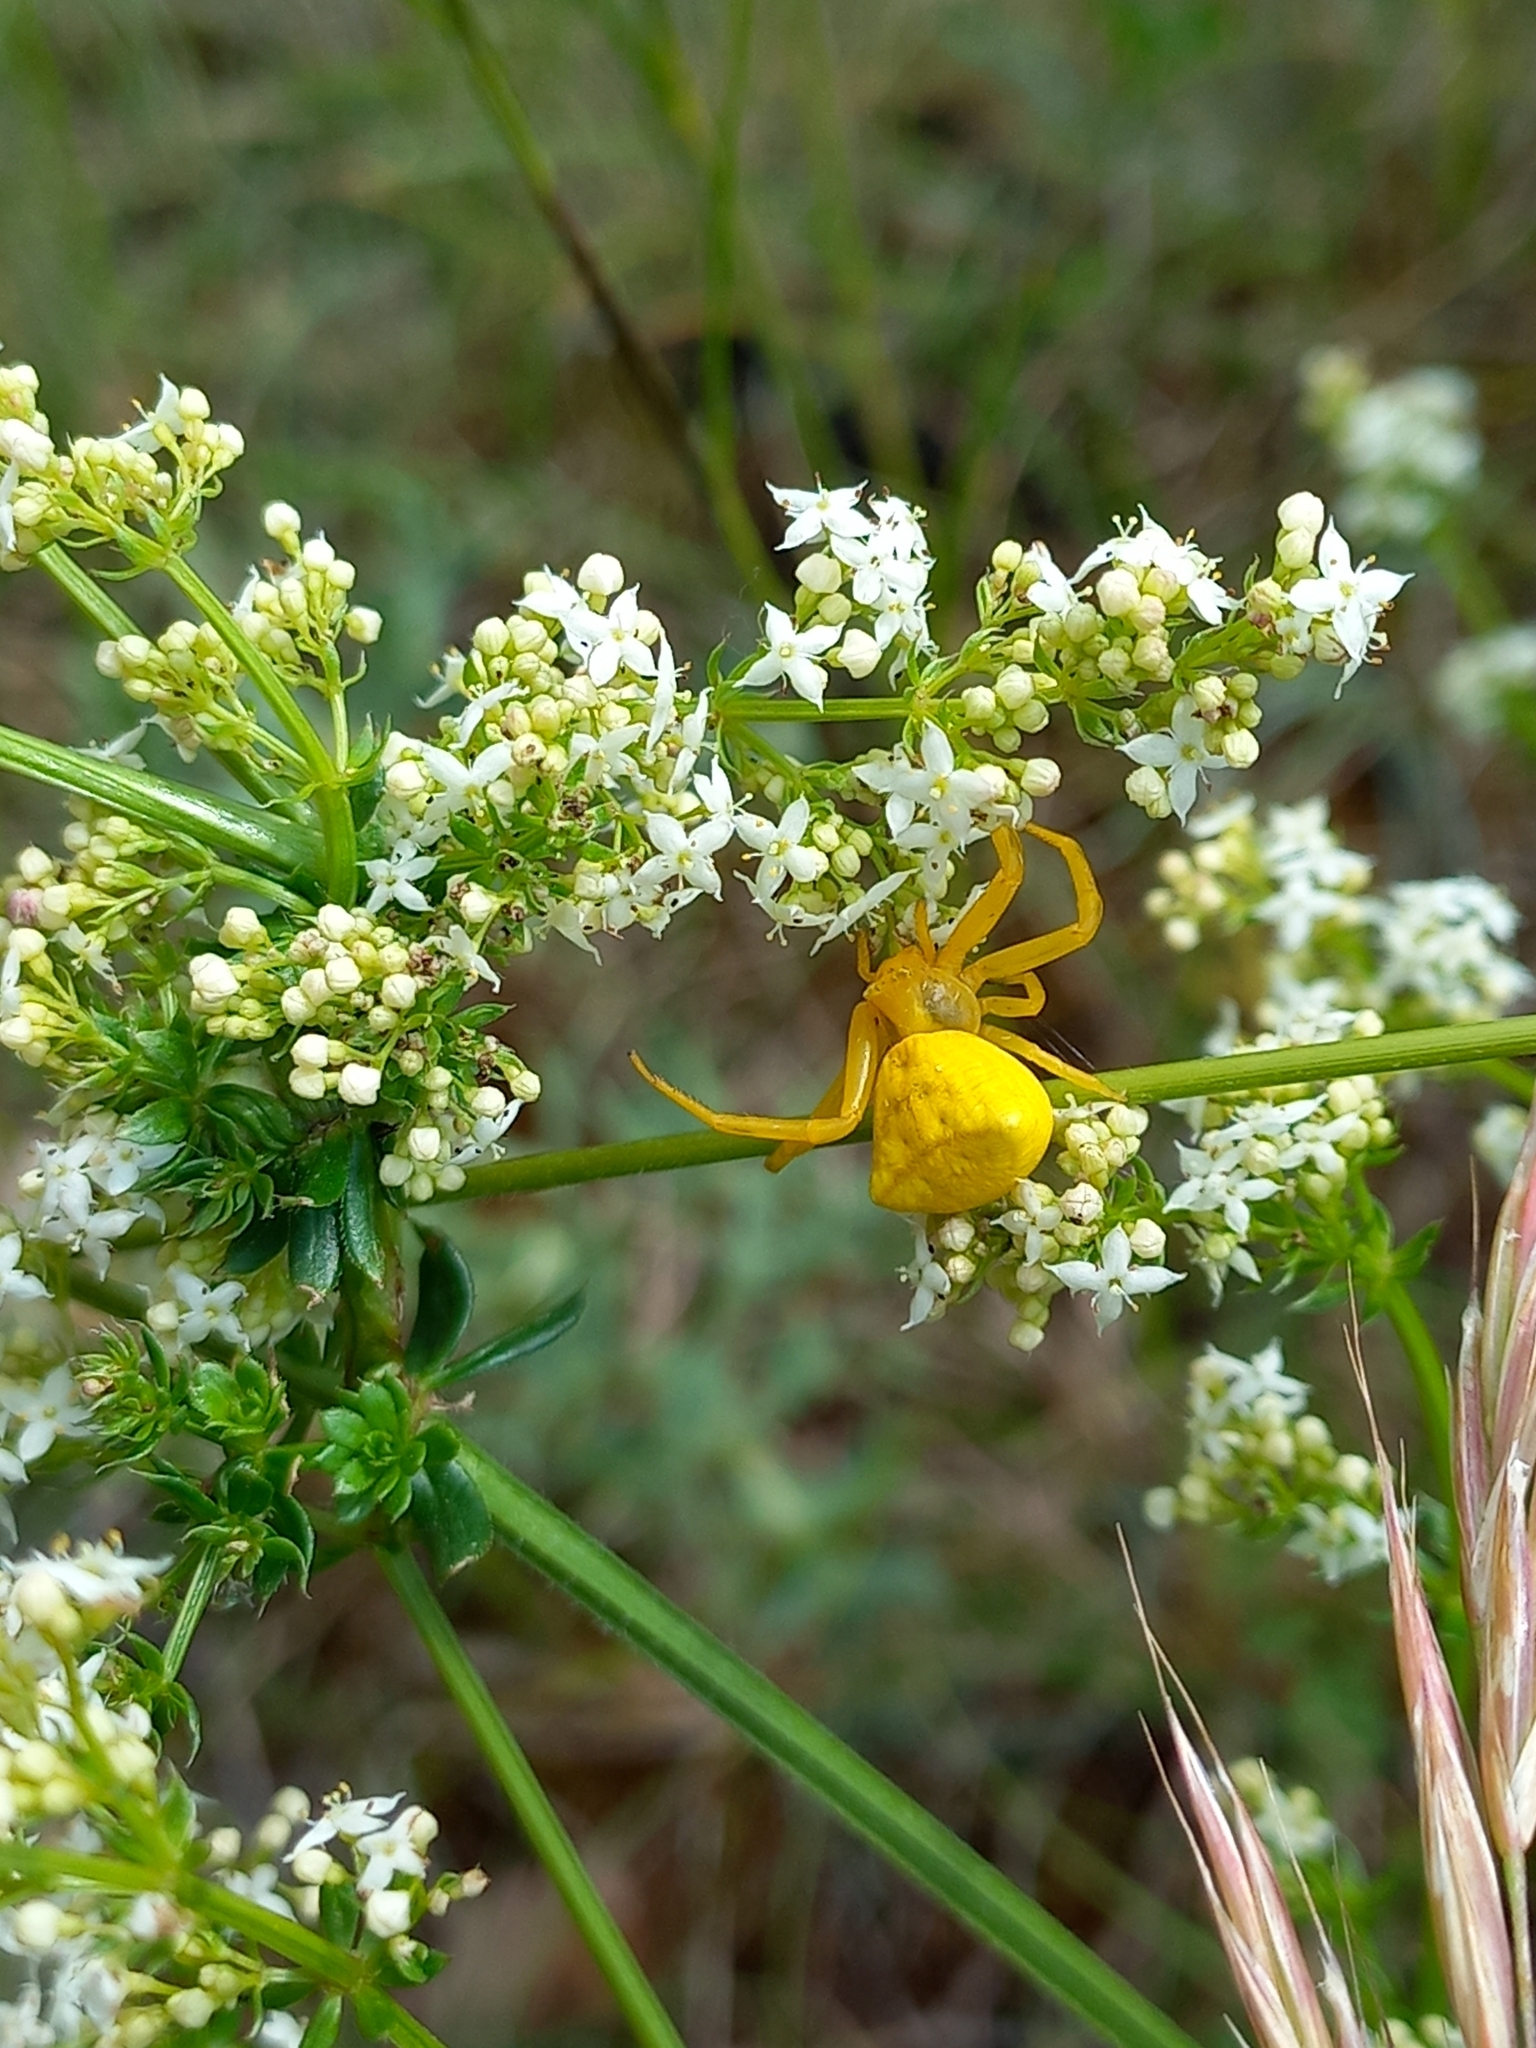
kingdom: Animalia
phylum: Arthropoda
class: Arachnida
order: Araneae
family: Thomisidae
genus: Thomisus
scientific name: Thomisus onustus
